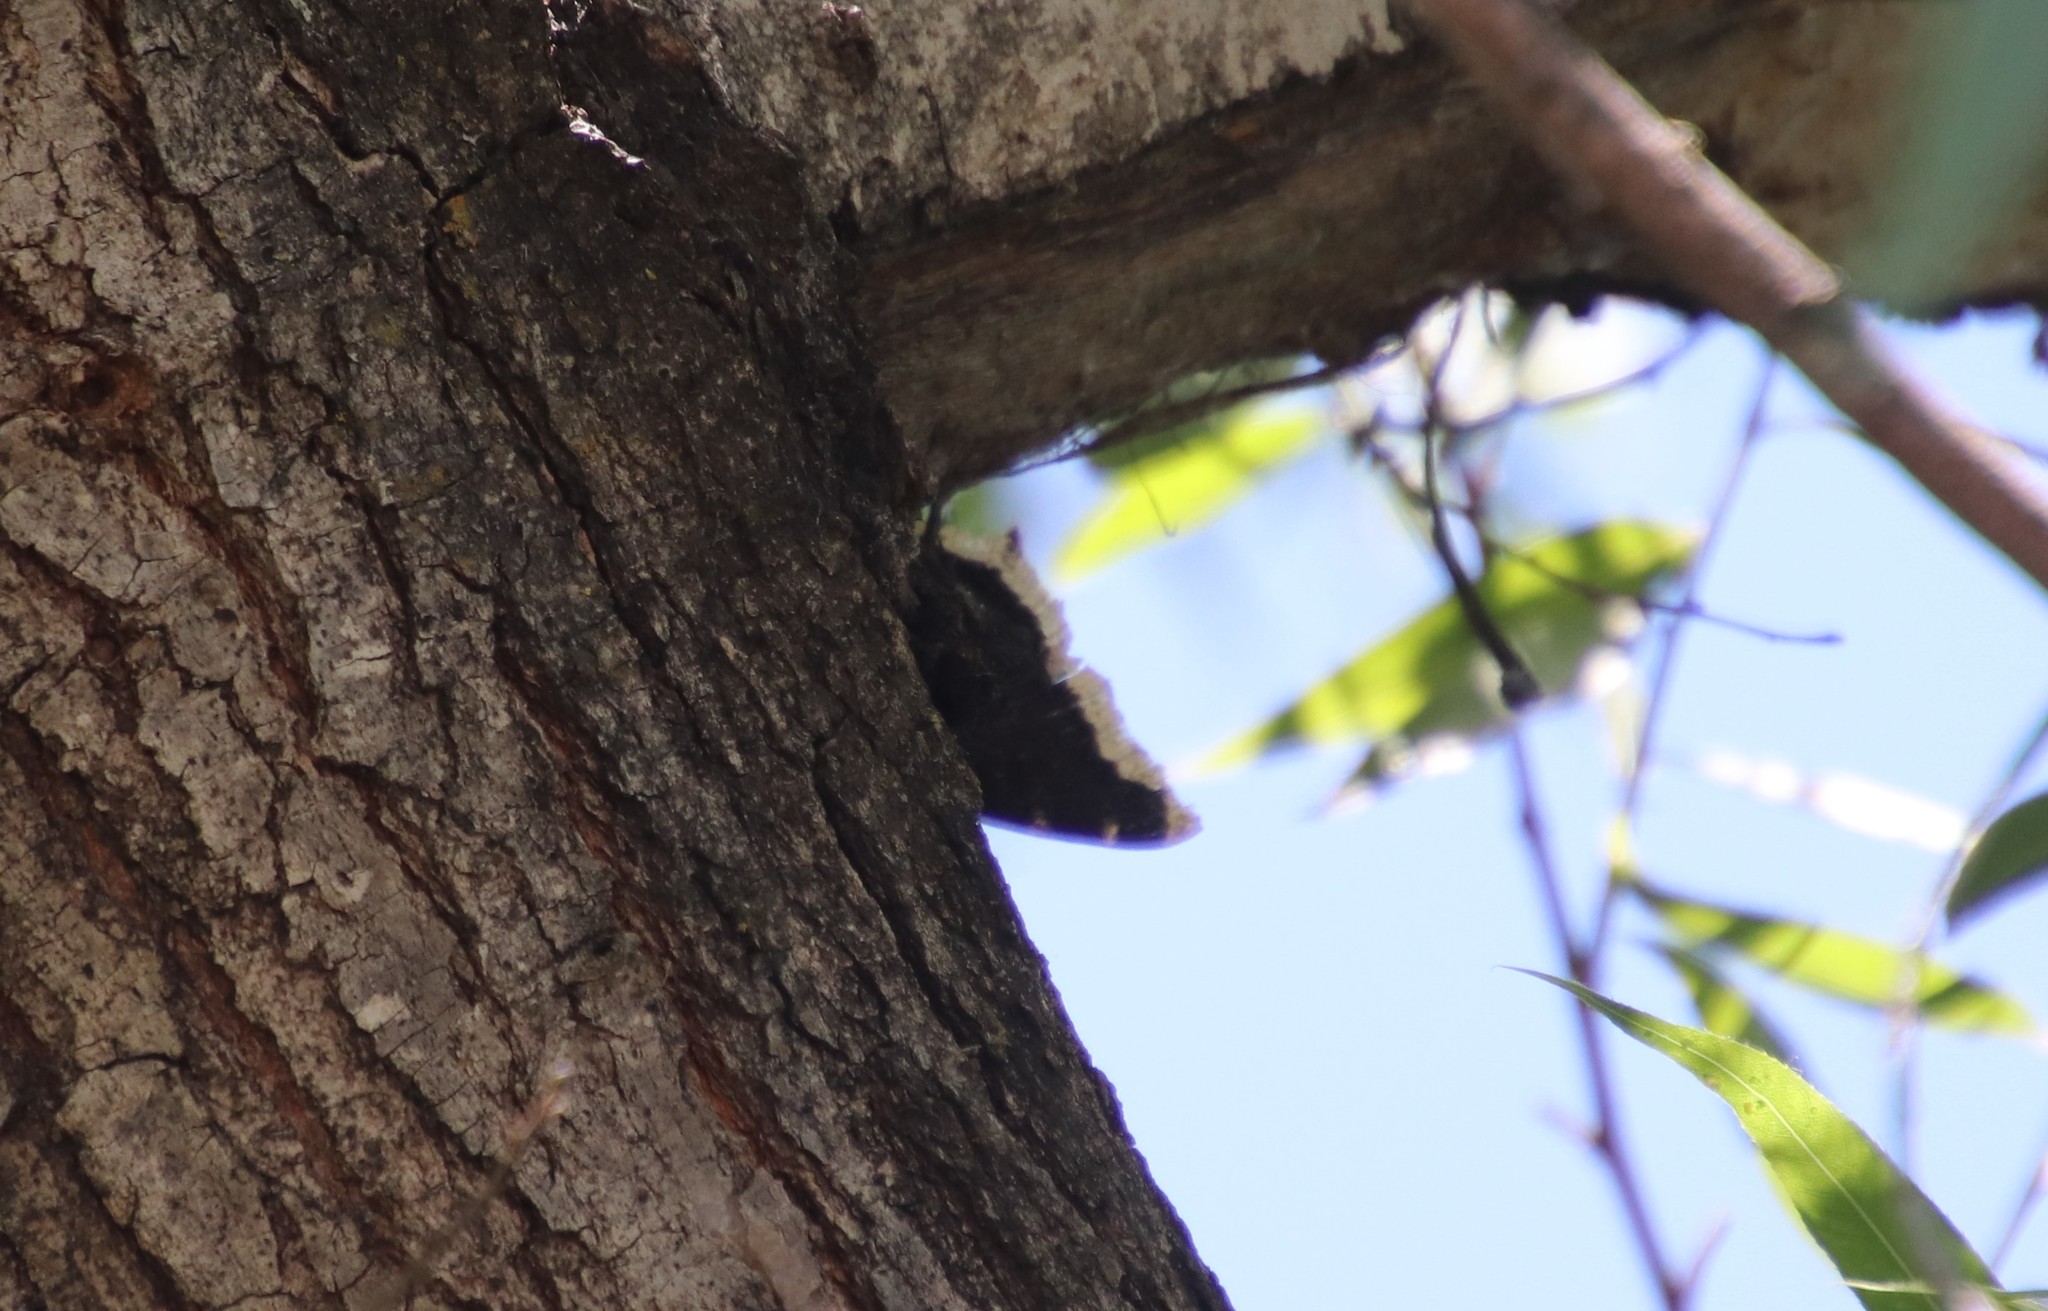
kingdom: Animalia
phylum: Arthropoda
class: Insecta
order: Lepidoptera
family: Nymphalidae
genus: Nymphalis
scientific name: Nymphalis antiopa
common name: Camberwell beauty
